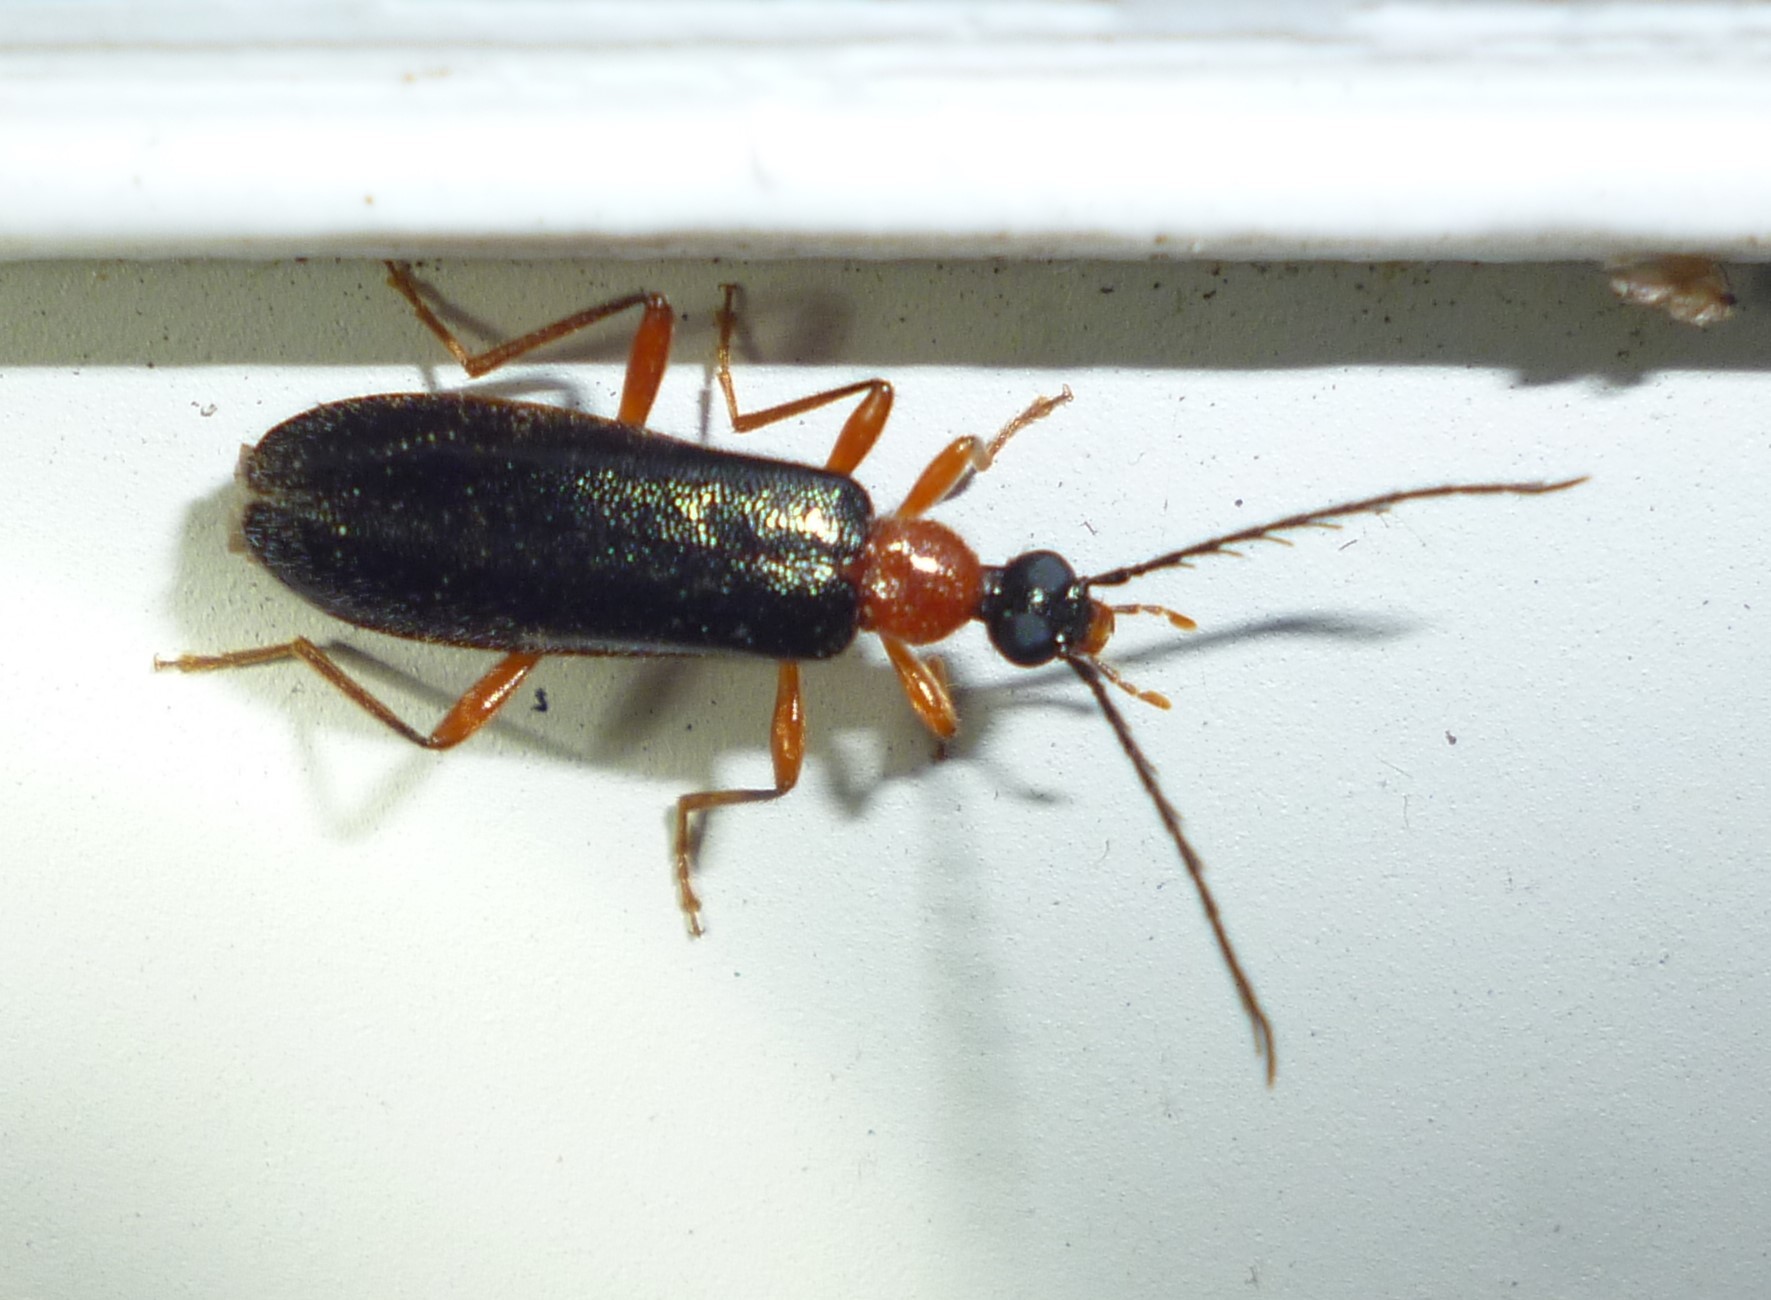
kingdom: Animalia
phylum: Arthropoda
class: Insecta
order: Coleoptera
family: Pyrochroidae
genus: Dendroides
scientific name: Dendroides canadensis
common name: Canada fire-colored beetle
